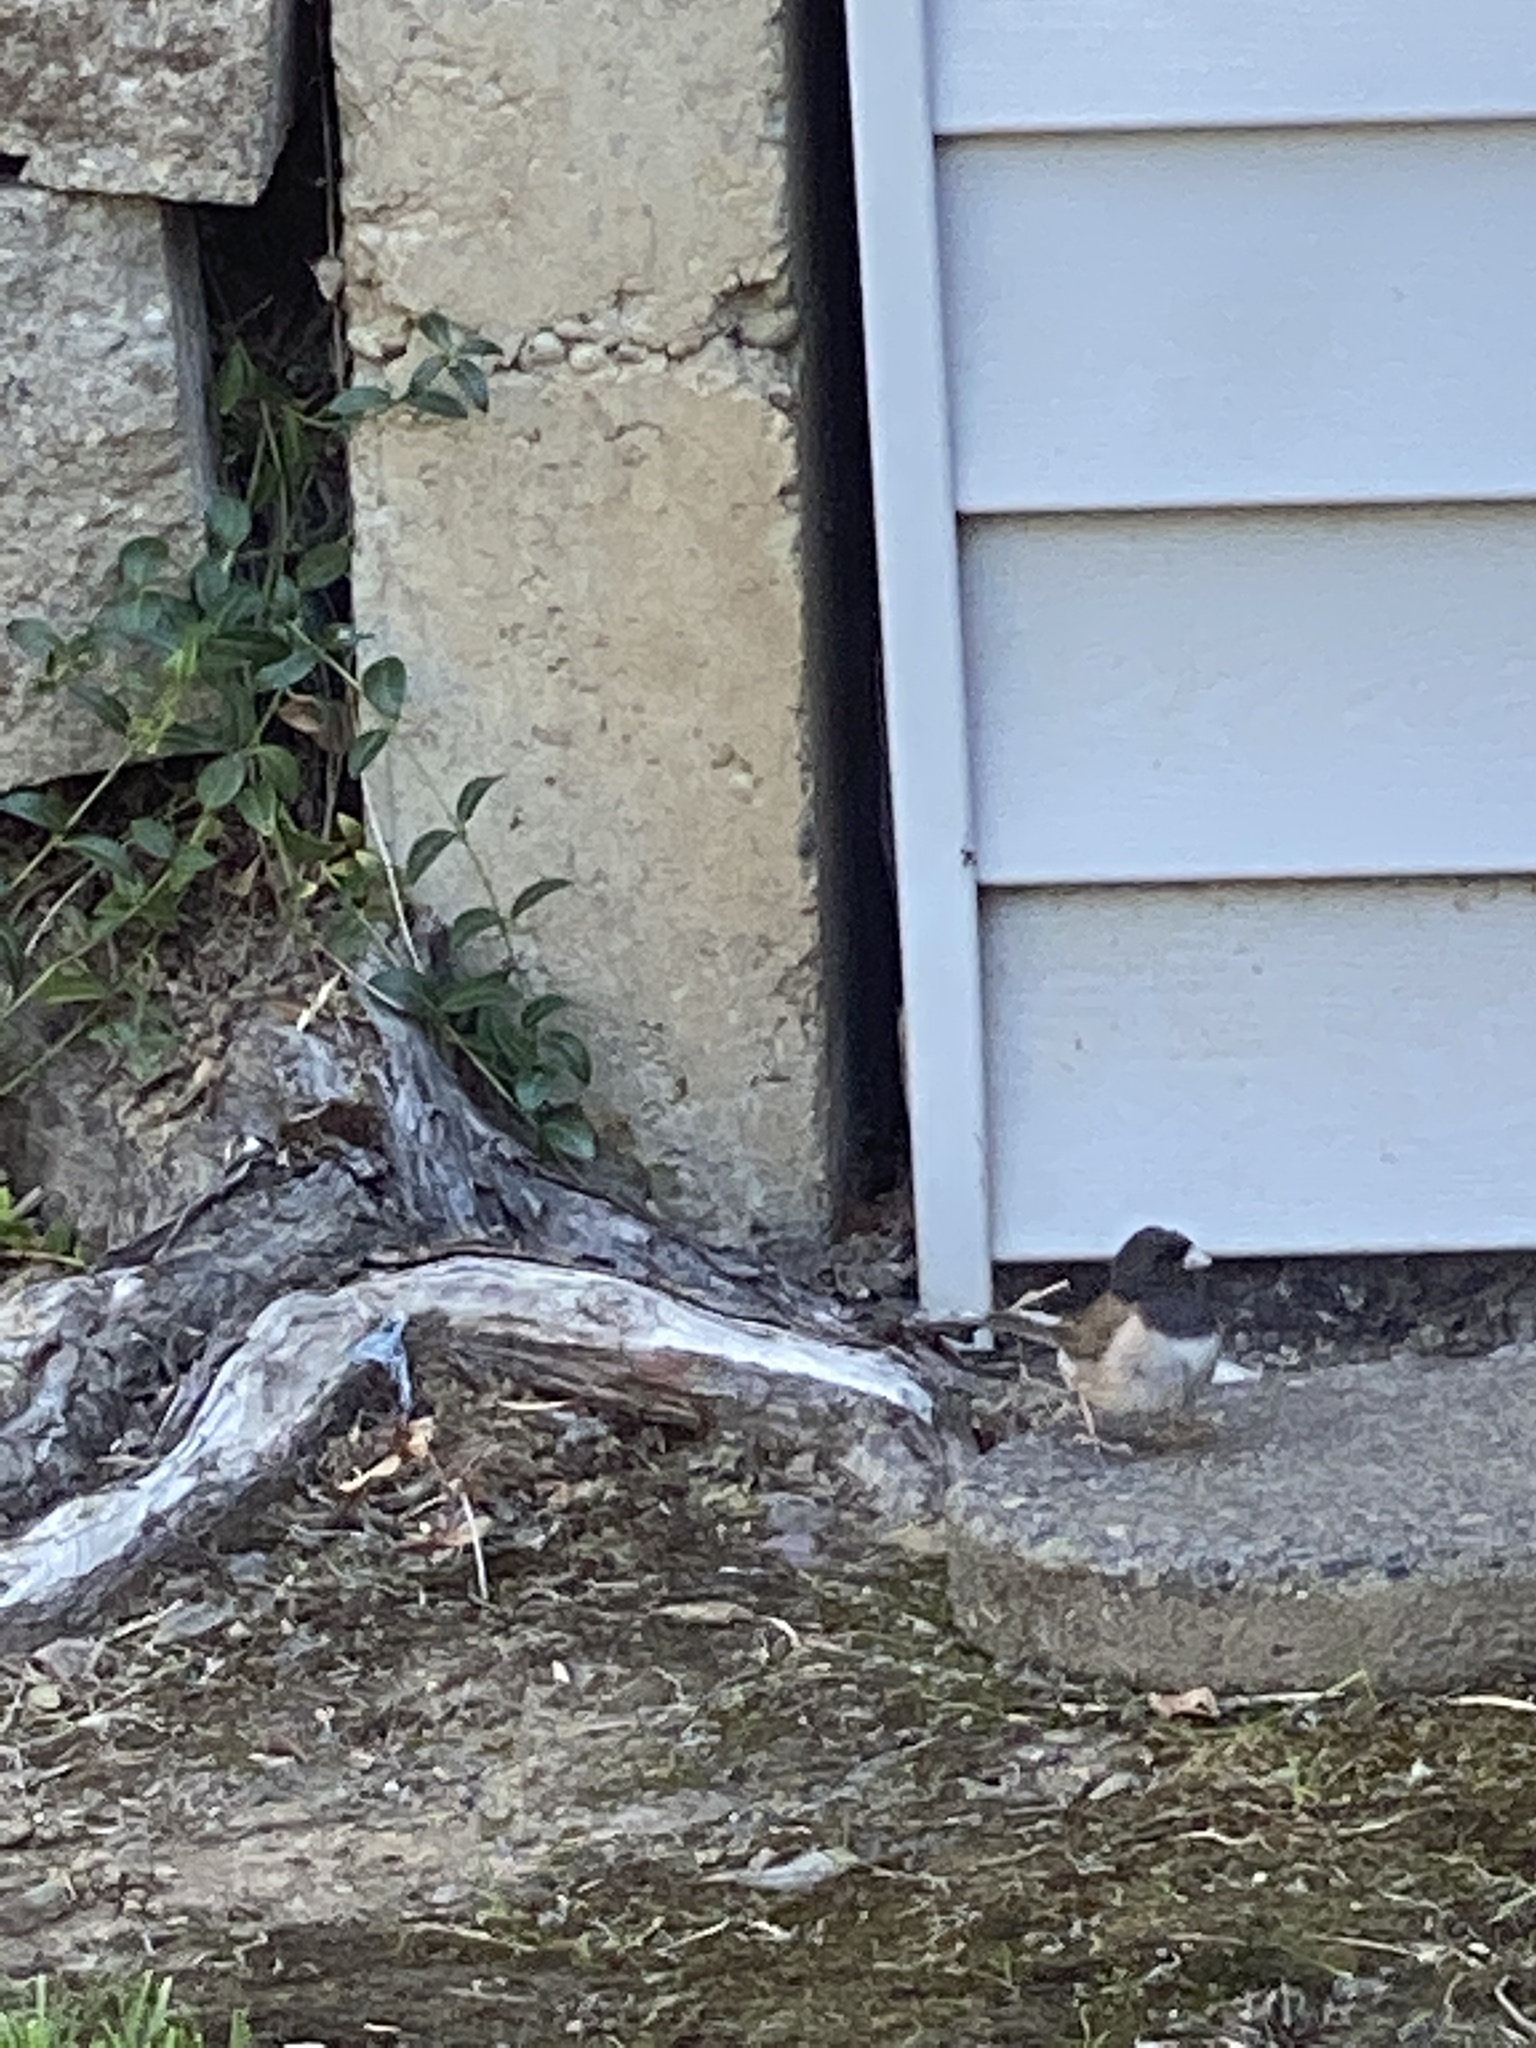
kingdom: Animalia
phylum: Chordata
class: Aves
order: Passeriformes
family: Passerellidae
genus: Junco
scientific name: Junco hyemalis
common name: Dark-eyed junco
